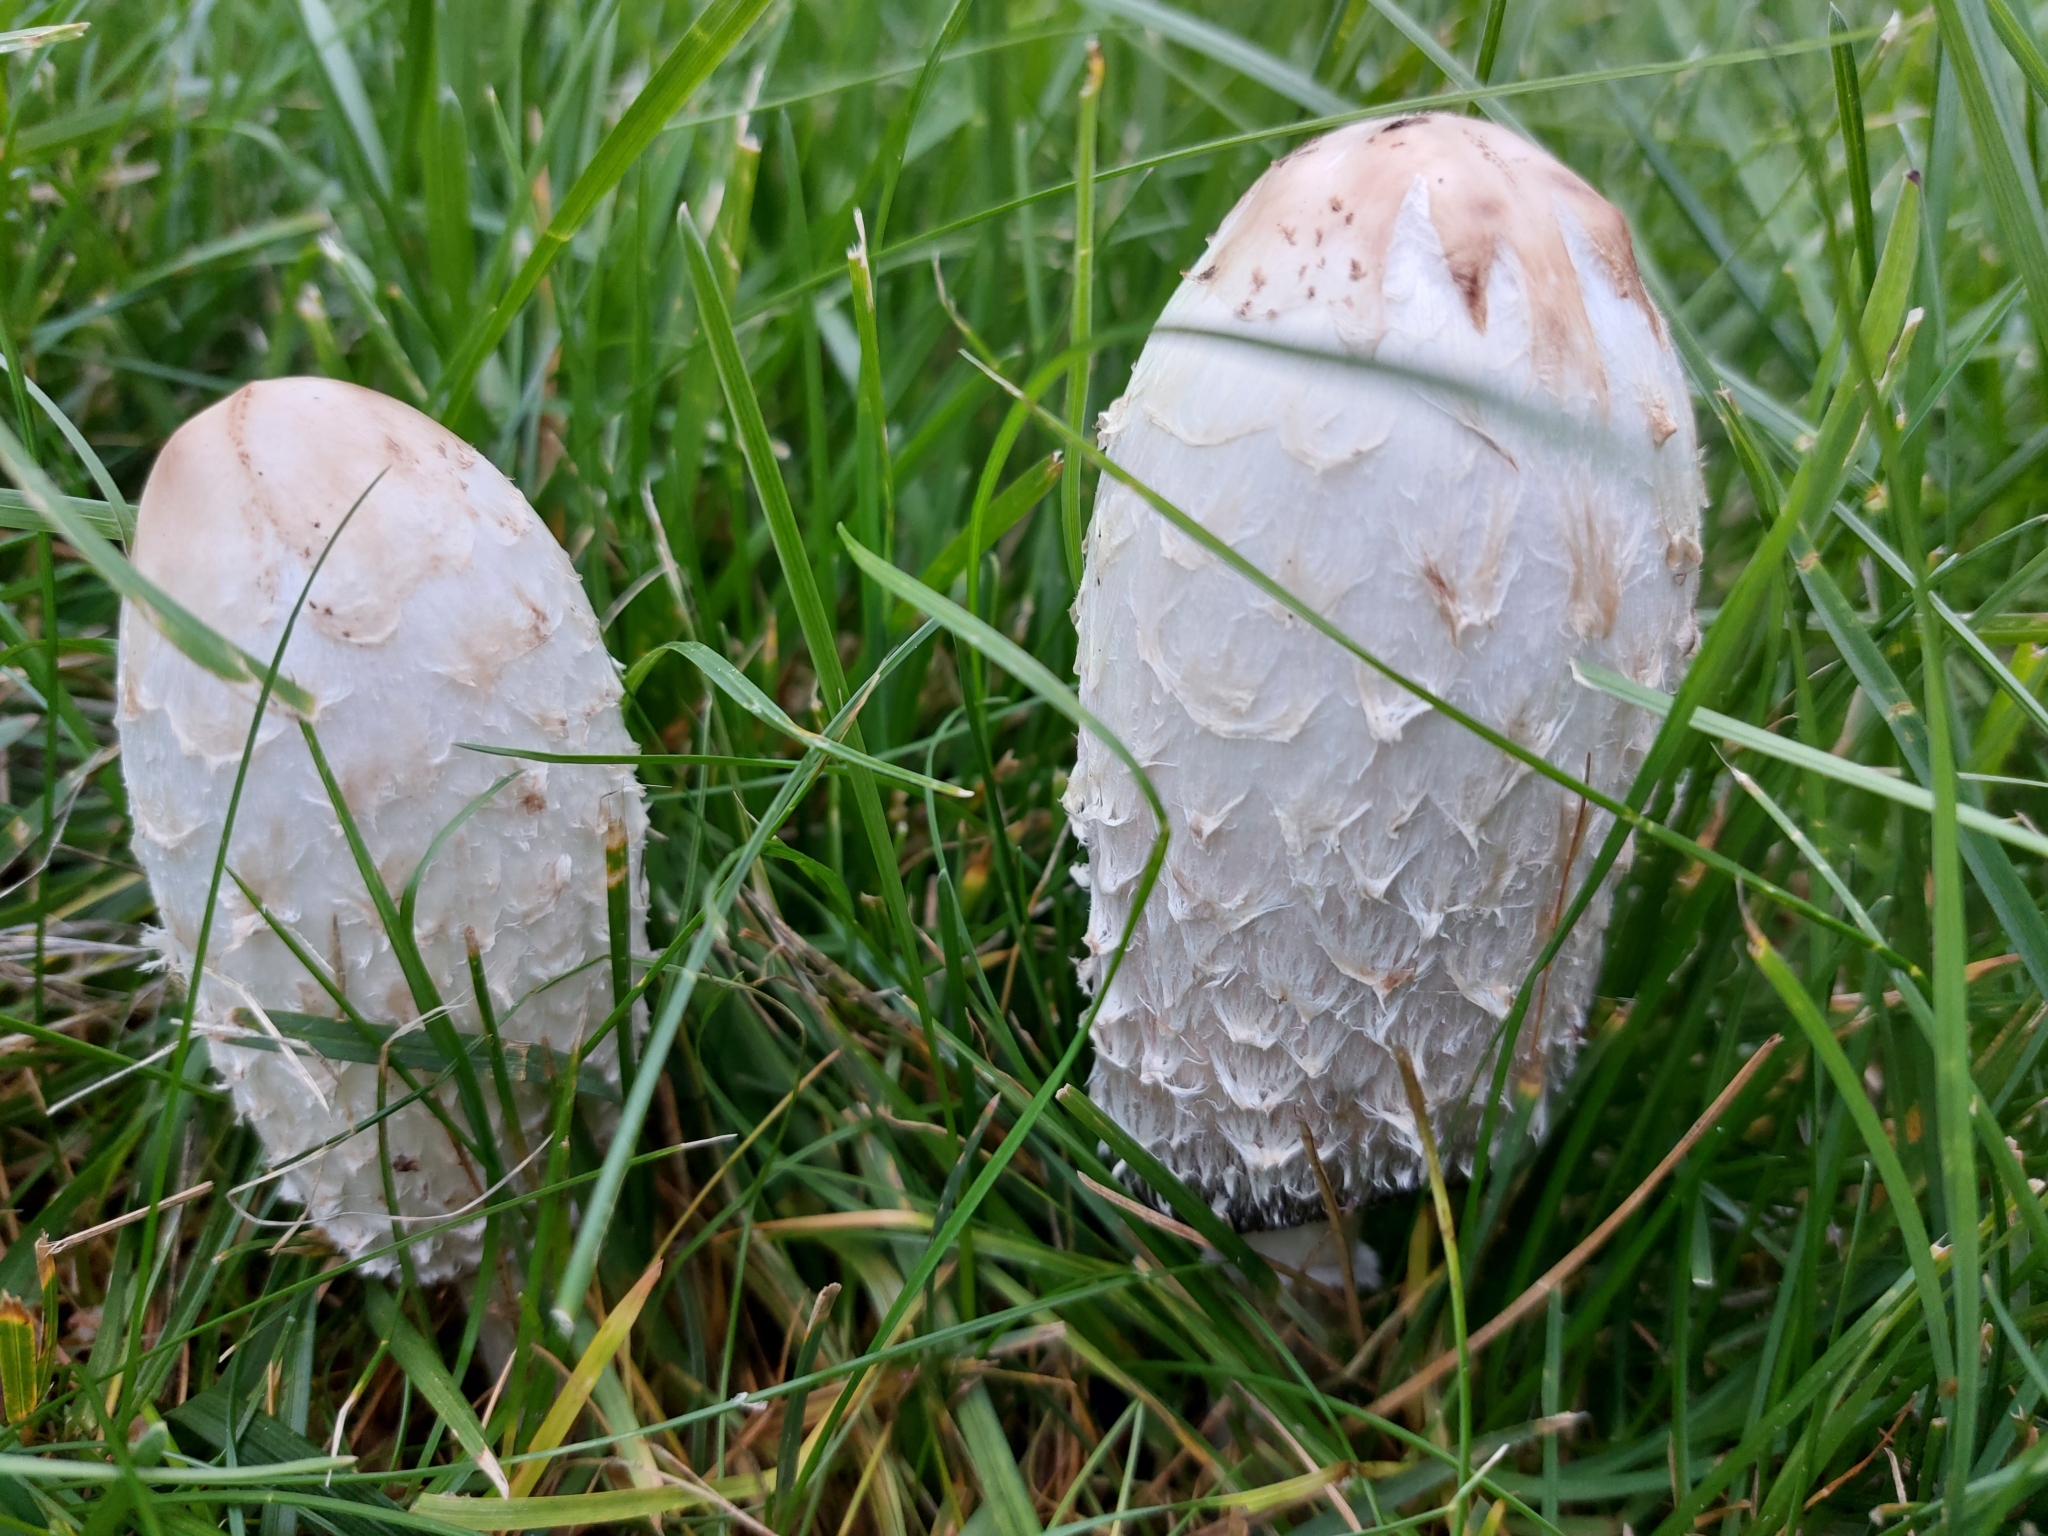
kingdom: Fungi
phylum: Basidiomycota
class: Agaricomycetes
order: Agaricales
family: Agaricaceae
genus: Coprinus
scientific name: Coprinus comatus
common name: Lawyer's wig
